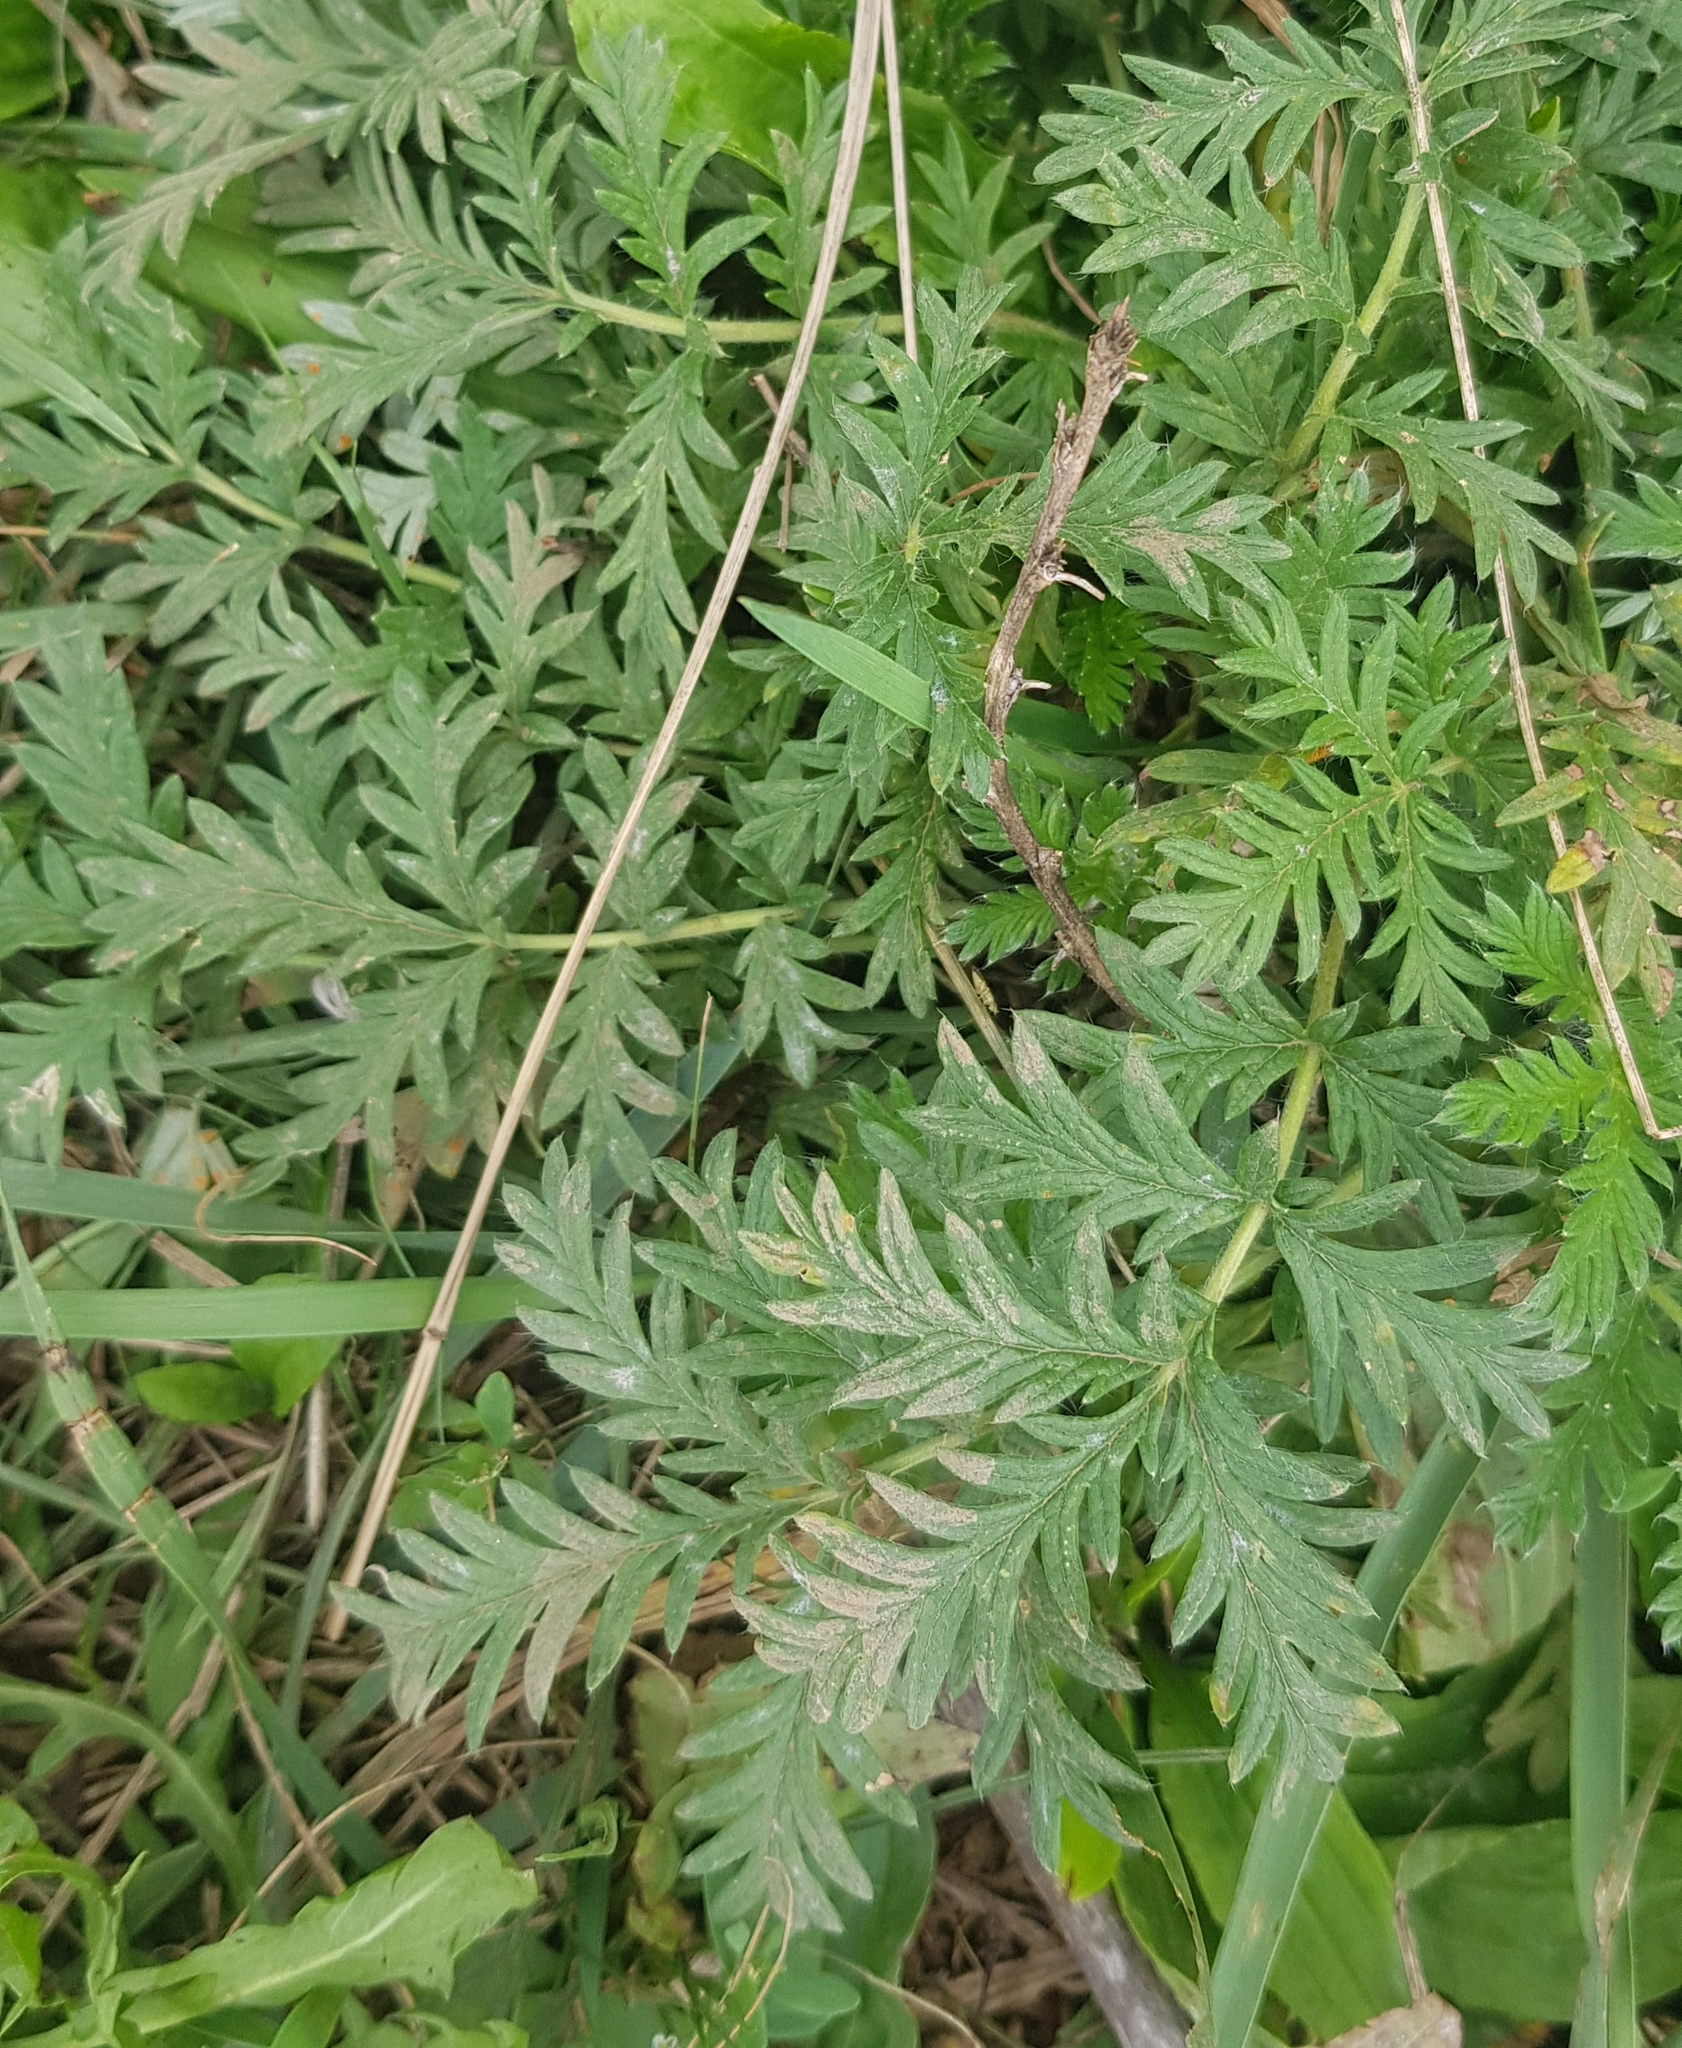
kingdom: Plantae
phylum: Tracheophyta
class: Magnoliopsida
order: Rosales
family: Rosaceae
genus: Potentilla
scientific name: Potentilla tergemina
